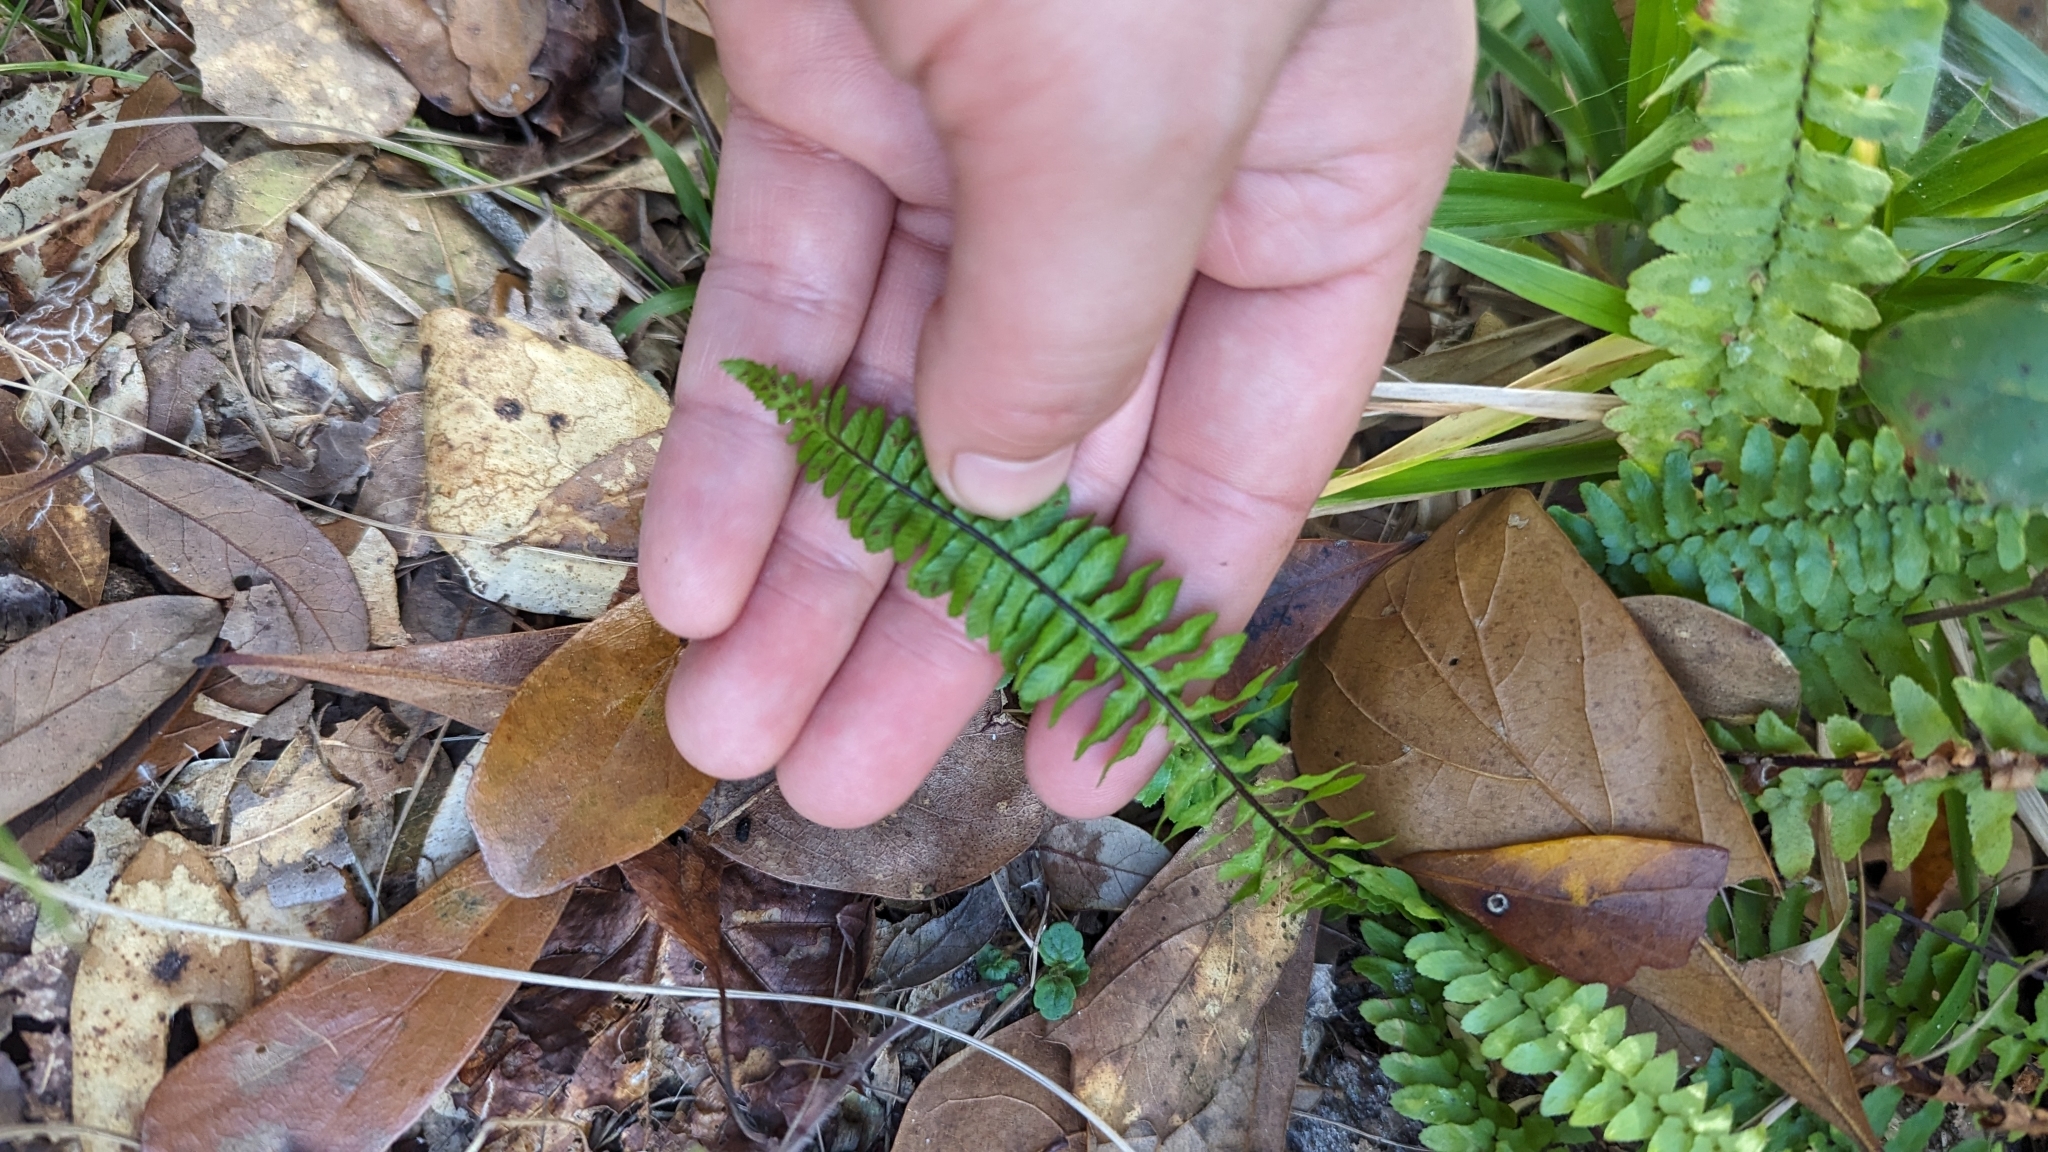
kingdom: Plantae
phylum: Tracheophyta
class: Polypodiopsida
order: Polypodiales
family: Aspleniaceae
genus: Asplenium
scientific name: Asplenium platyneuron
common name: Ebony spleenwort
